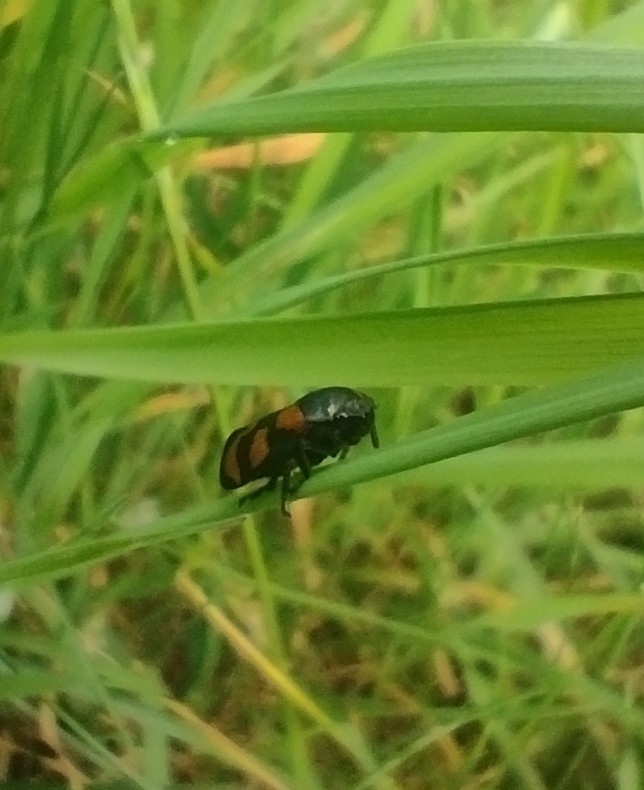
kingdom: Animalia
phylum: Arthropoda
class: Insecta
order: Hemiptera
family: Cercopidae
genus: Cercopis
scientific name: Cercopis vulnerata
